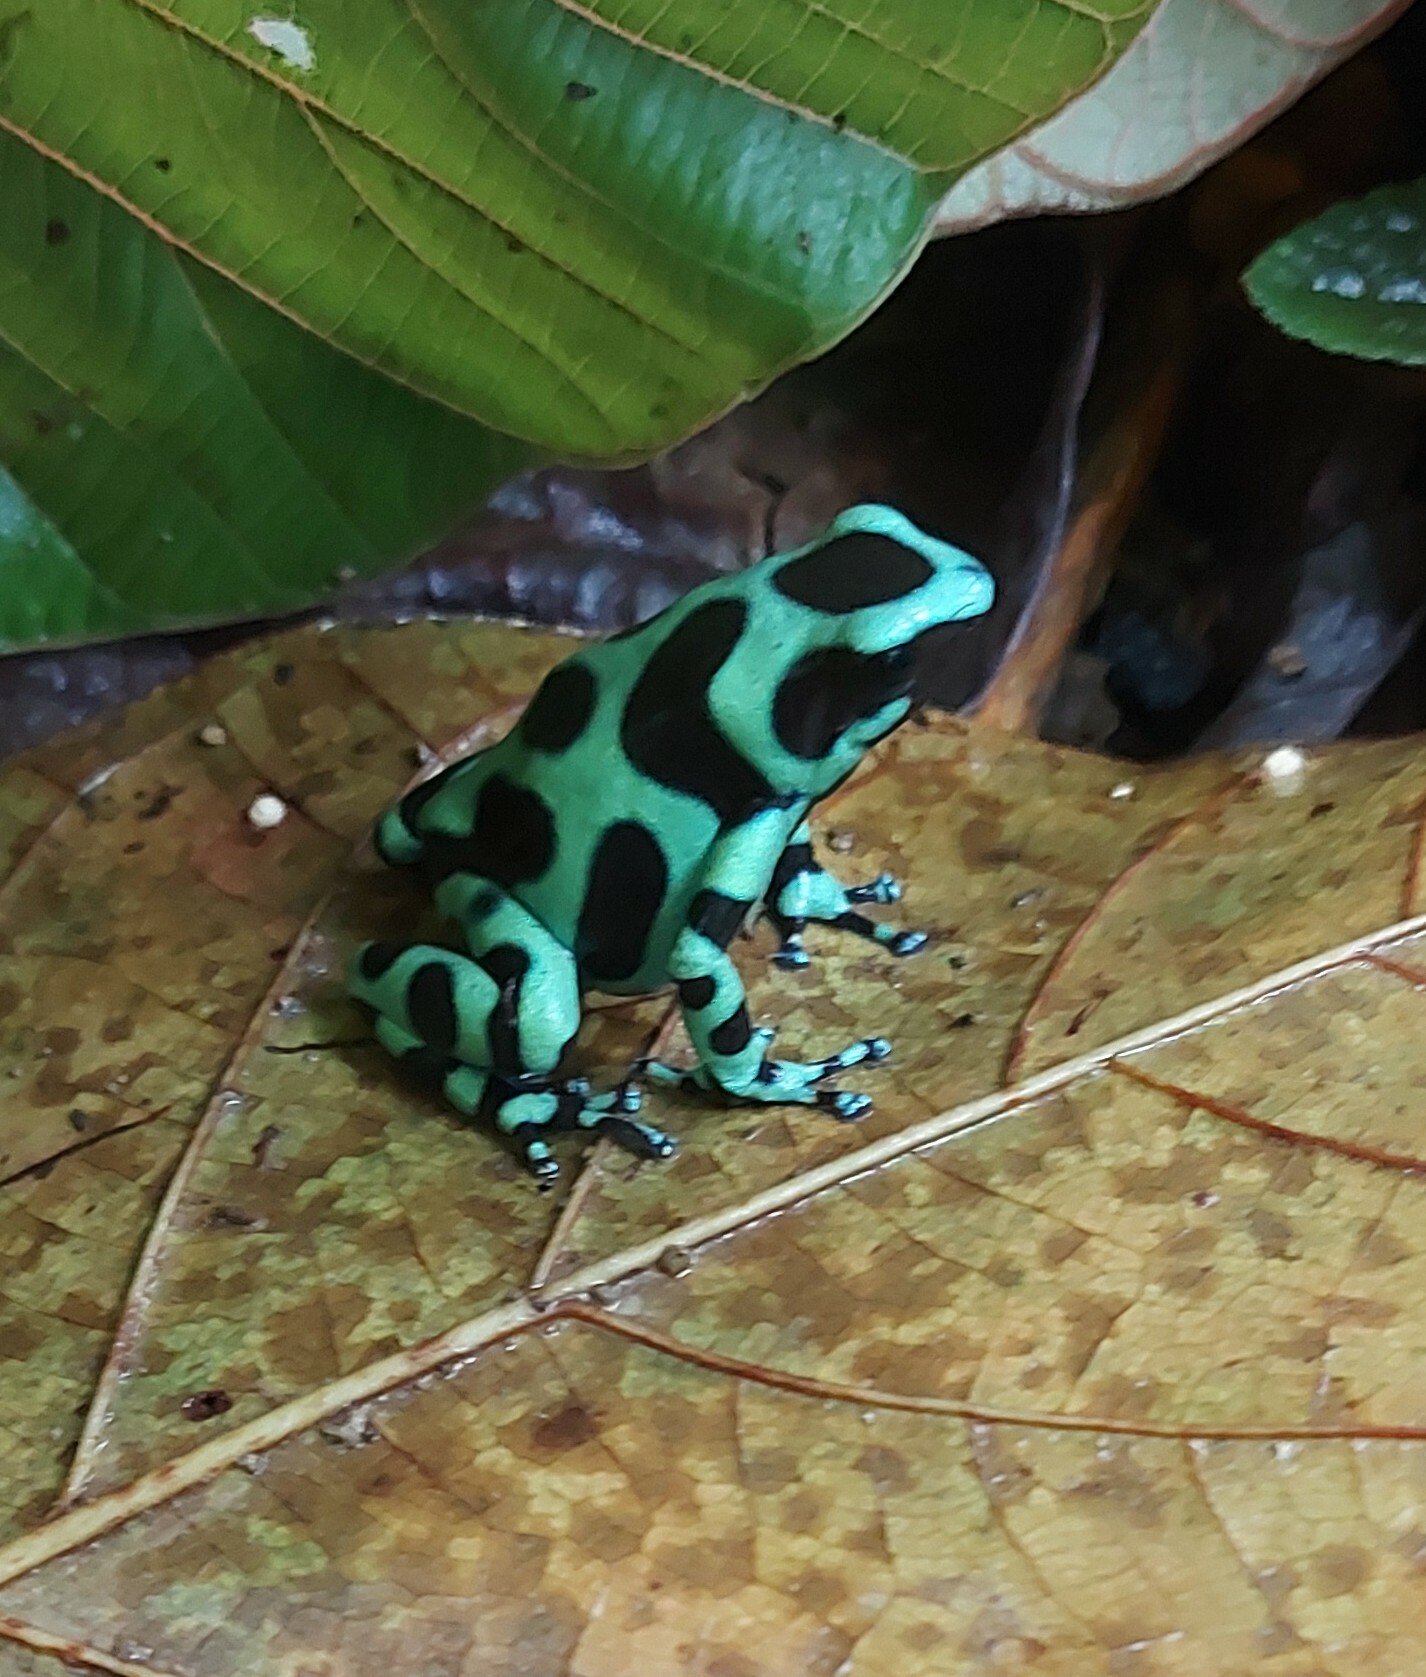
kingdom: Animalia
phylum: Chordata
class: Amphibia
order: Anura
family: Dendrobatidae
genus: Dendrobates
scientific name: Dendrobates auratus
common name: Green and black poison dart frog
